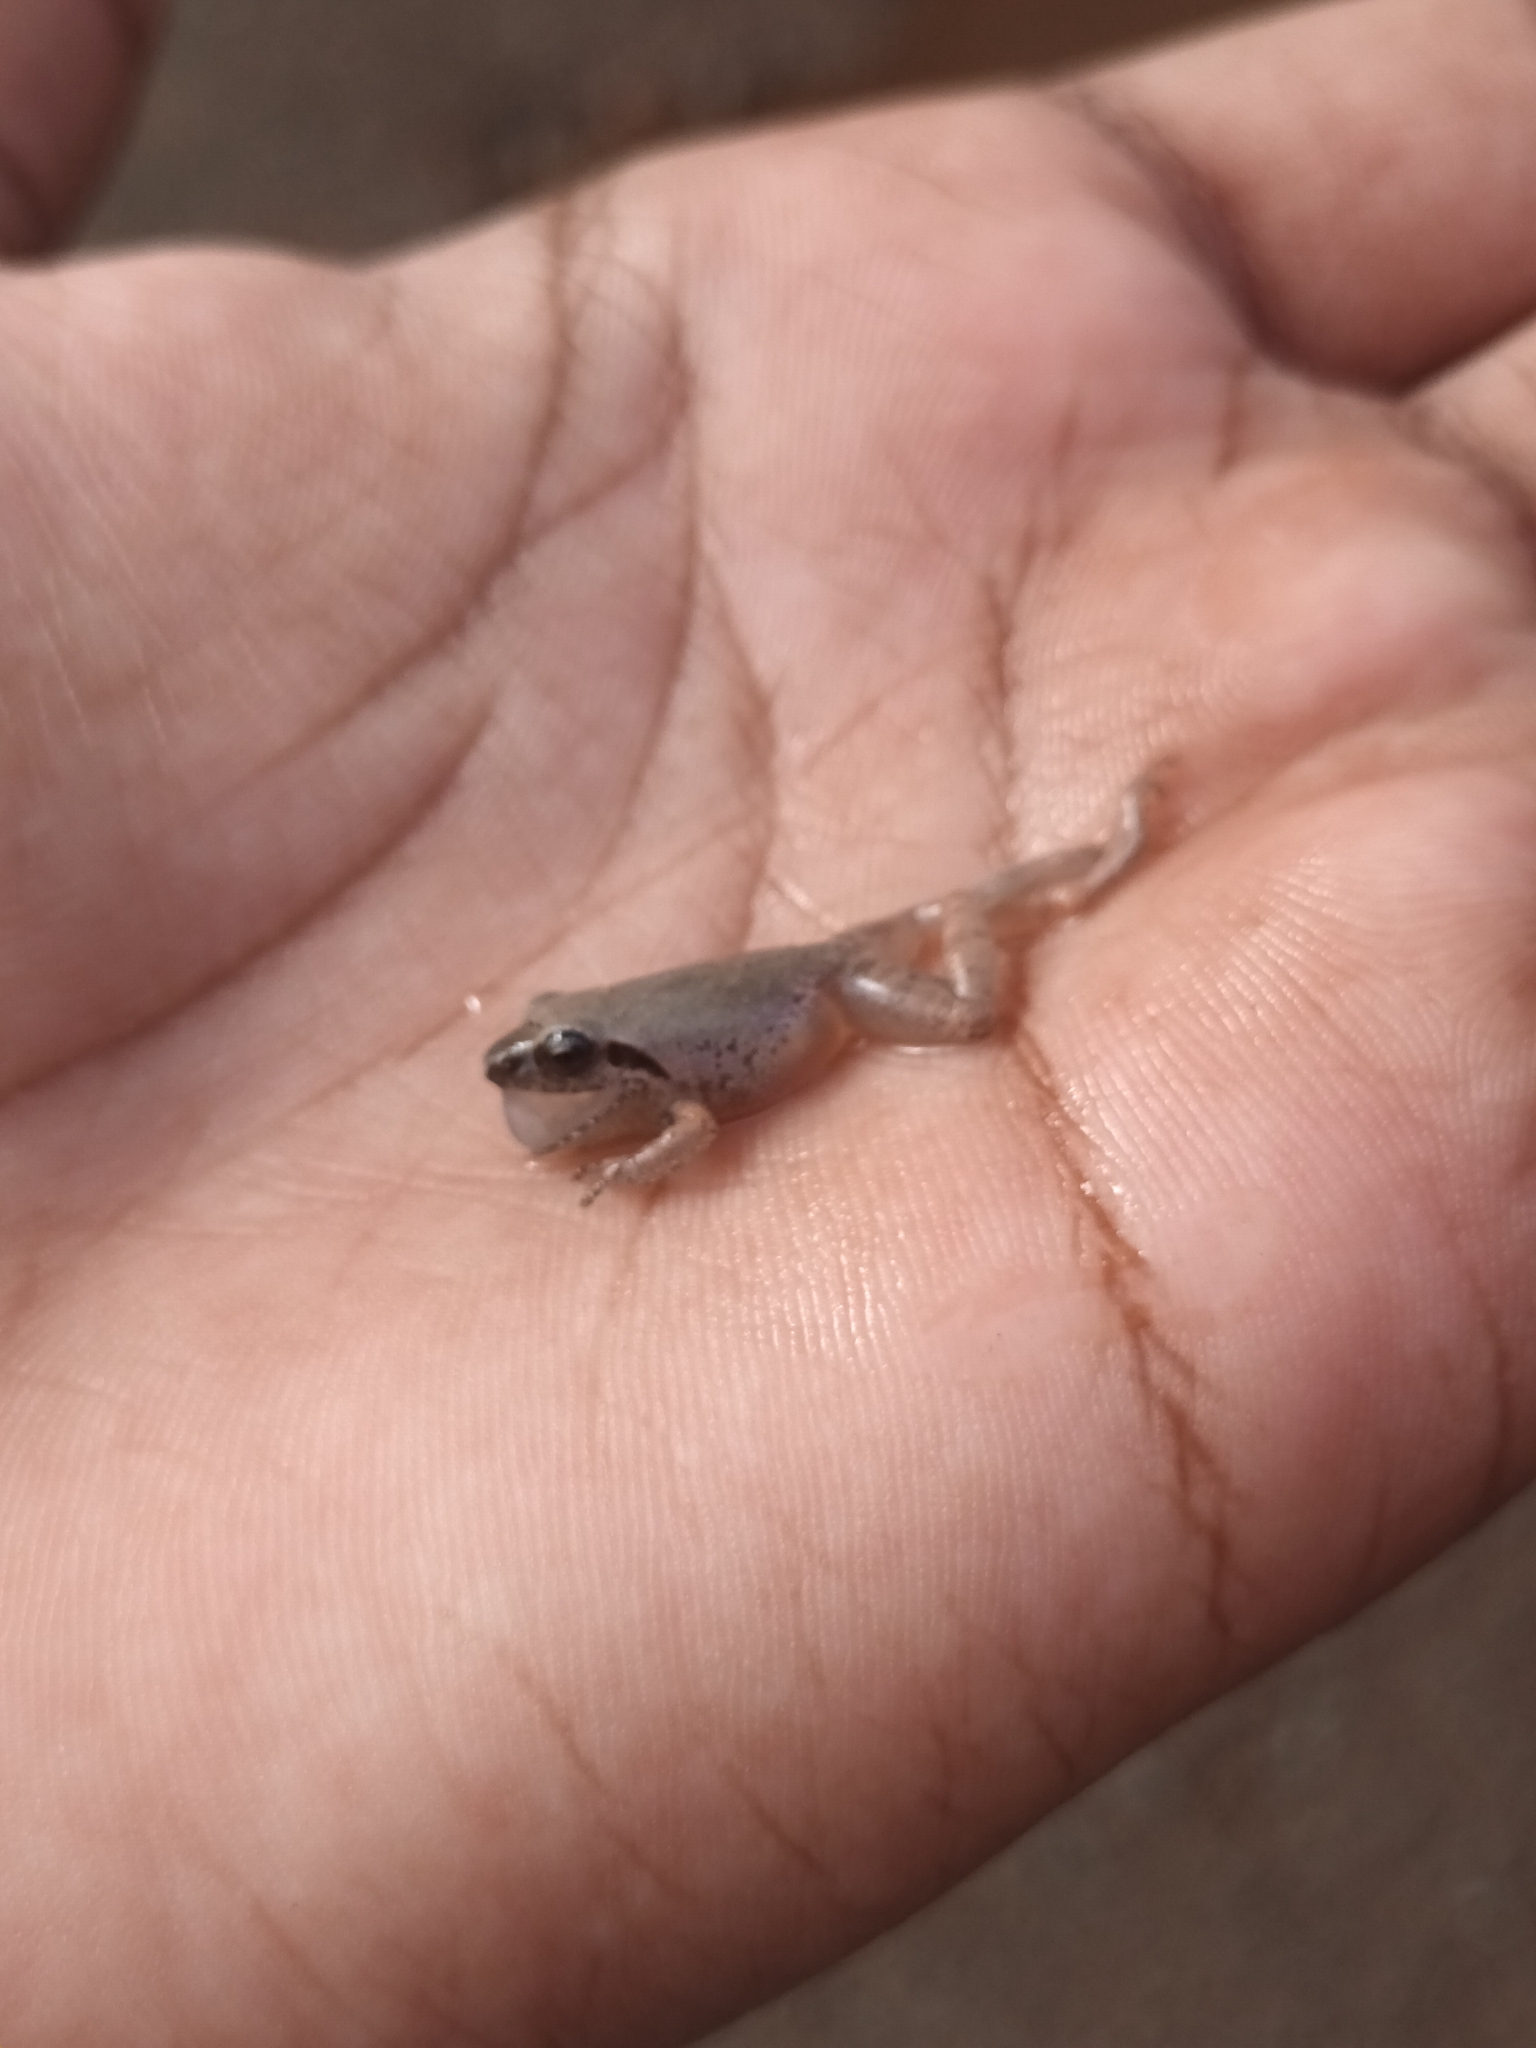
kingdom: Animalia
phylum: Chordata
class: Amphibia
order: Anura
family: Rhacophoridae
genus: Pseudophilautus
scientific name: Pseudophilautus wynaadensis
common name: Dark-eared bush frog
